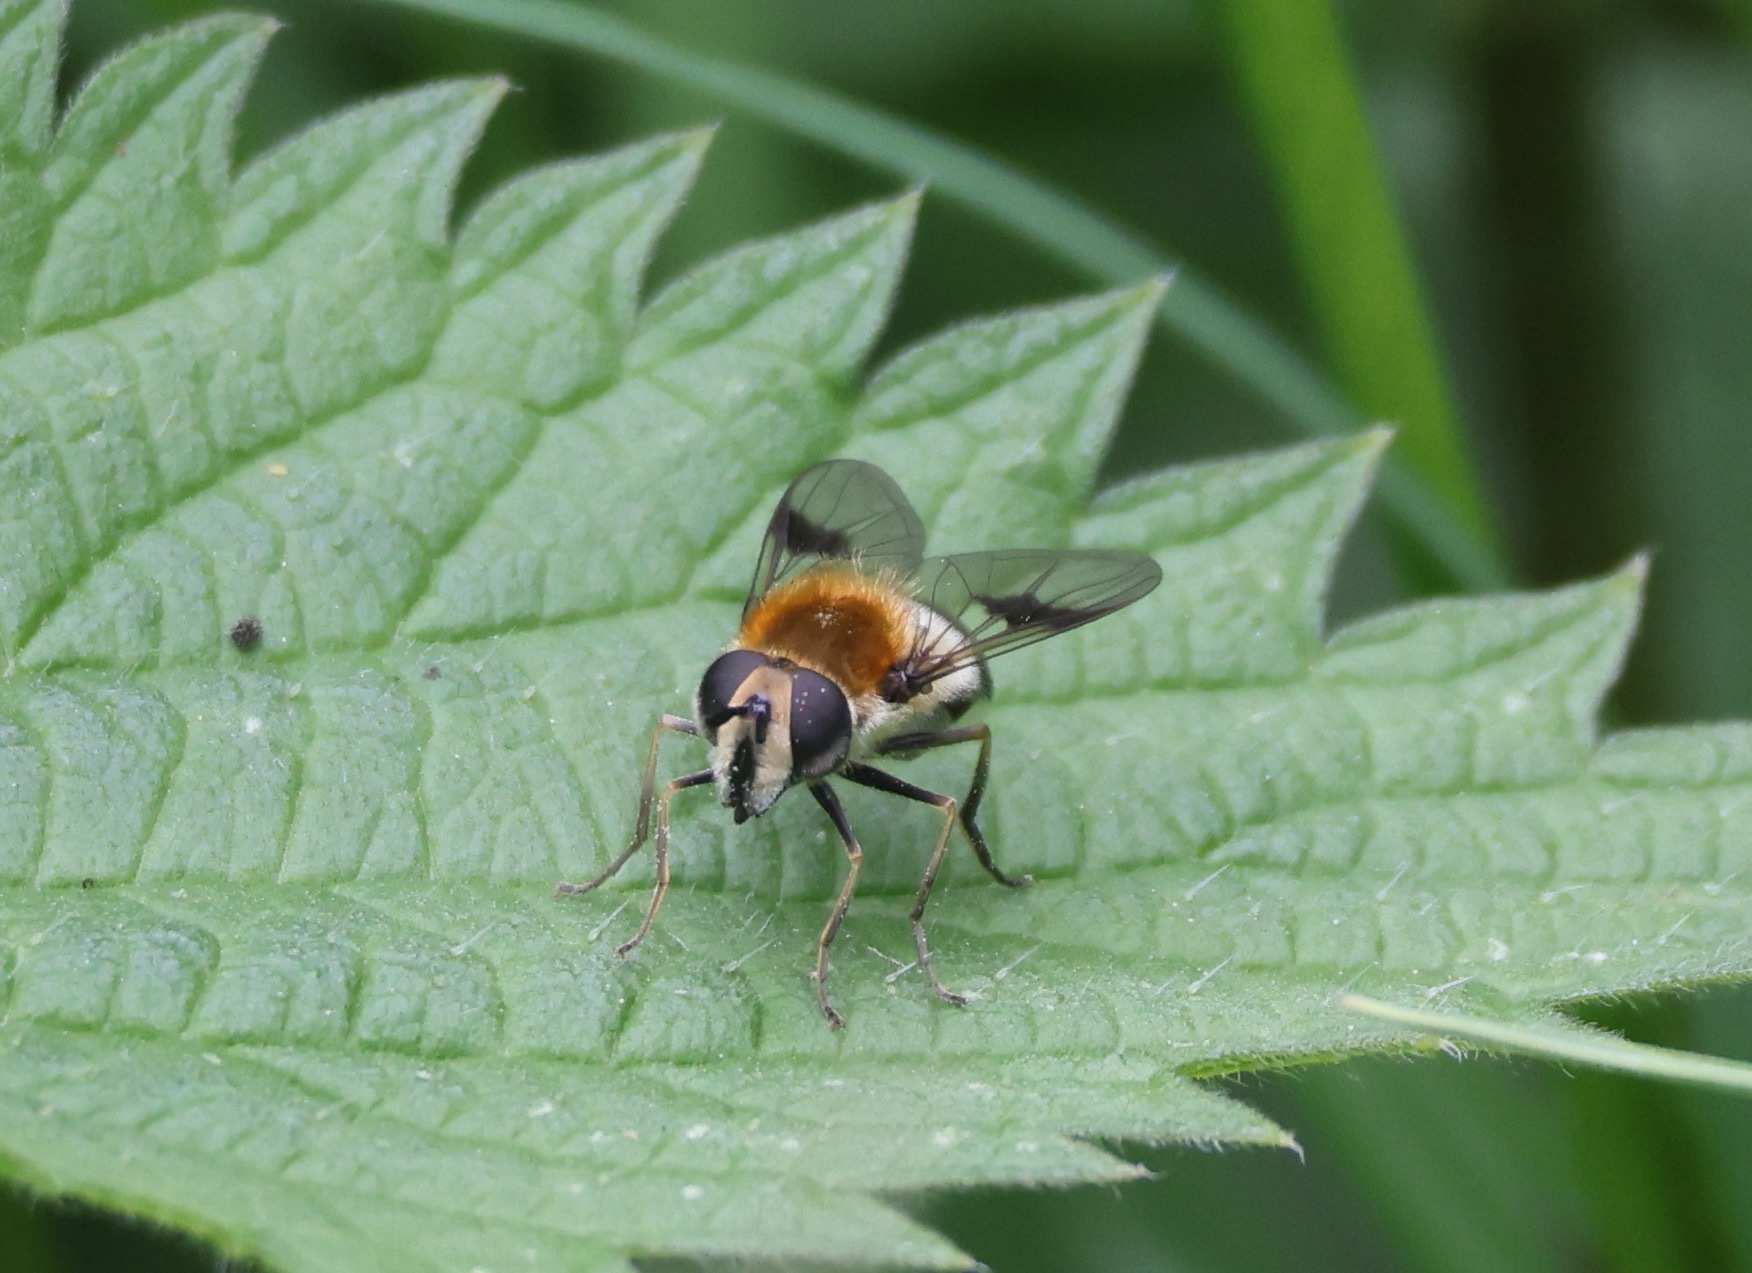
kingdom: Animalia
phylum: Arthropoda
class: Insecta
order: Diptera
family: Syrphidae
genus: Leucozona
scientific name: Leucozona lucorum
